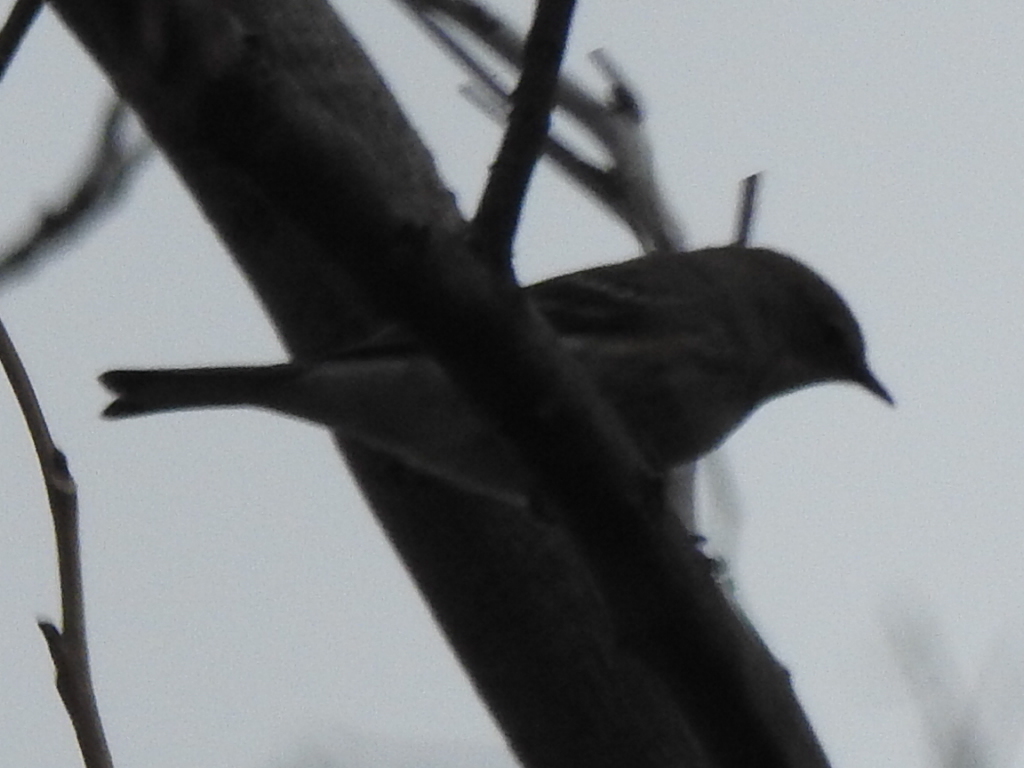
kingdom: Animalia
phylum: Chordata
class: Aves
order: Passeriformes
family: Parulidae
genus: Setophaga
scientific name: Setophaga coronata
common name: Myrtle warbler
